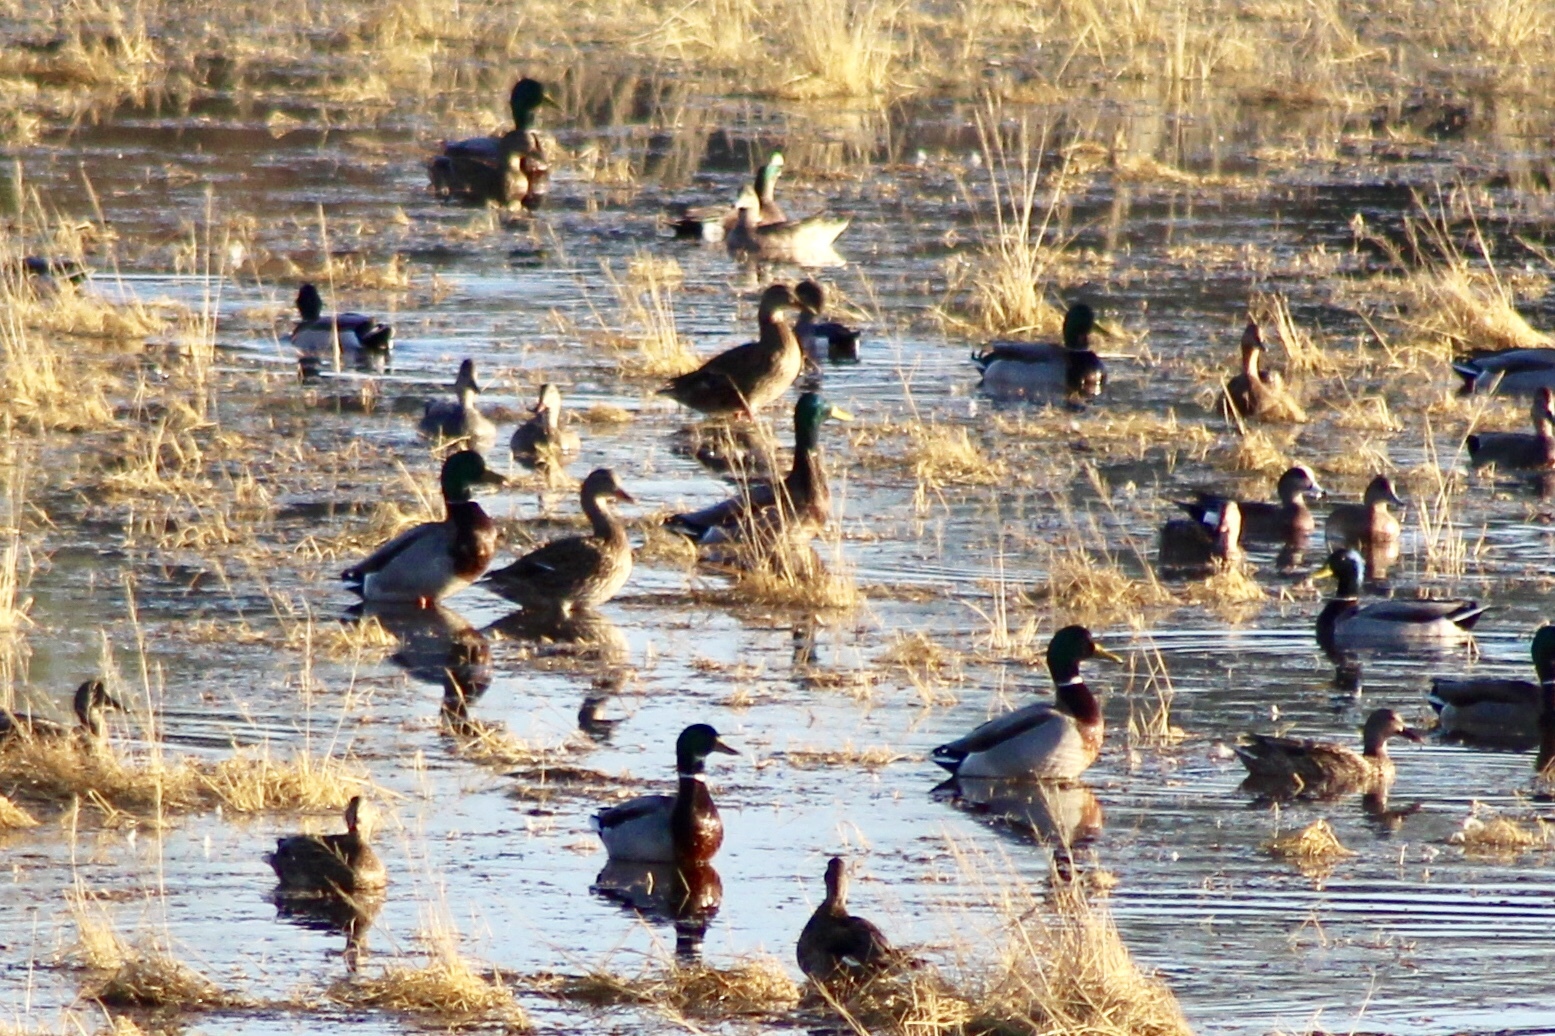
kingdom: Animalia
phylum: Chordata
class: Aves
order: Anseriformes
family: Anatidae
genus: Anas
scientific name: Anas platyrhynchos
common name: Mallard
